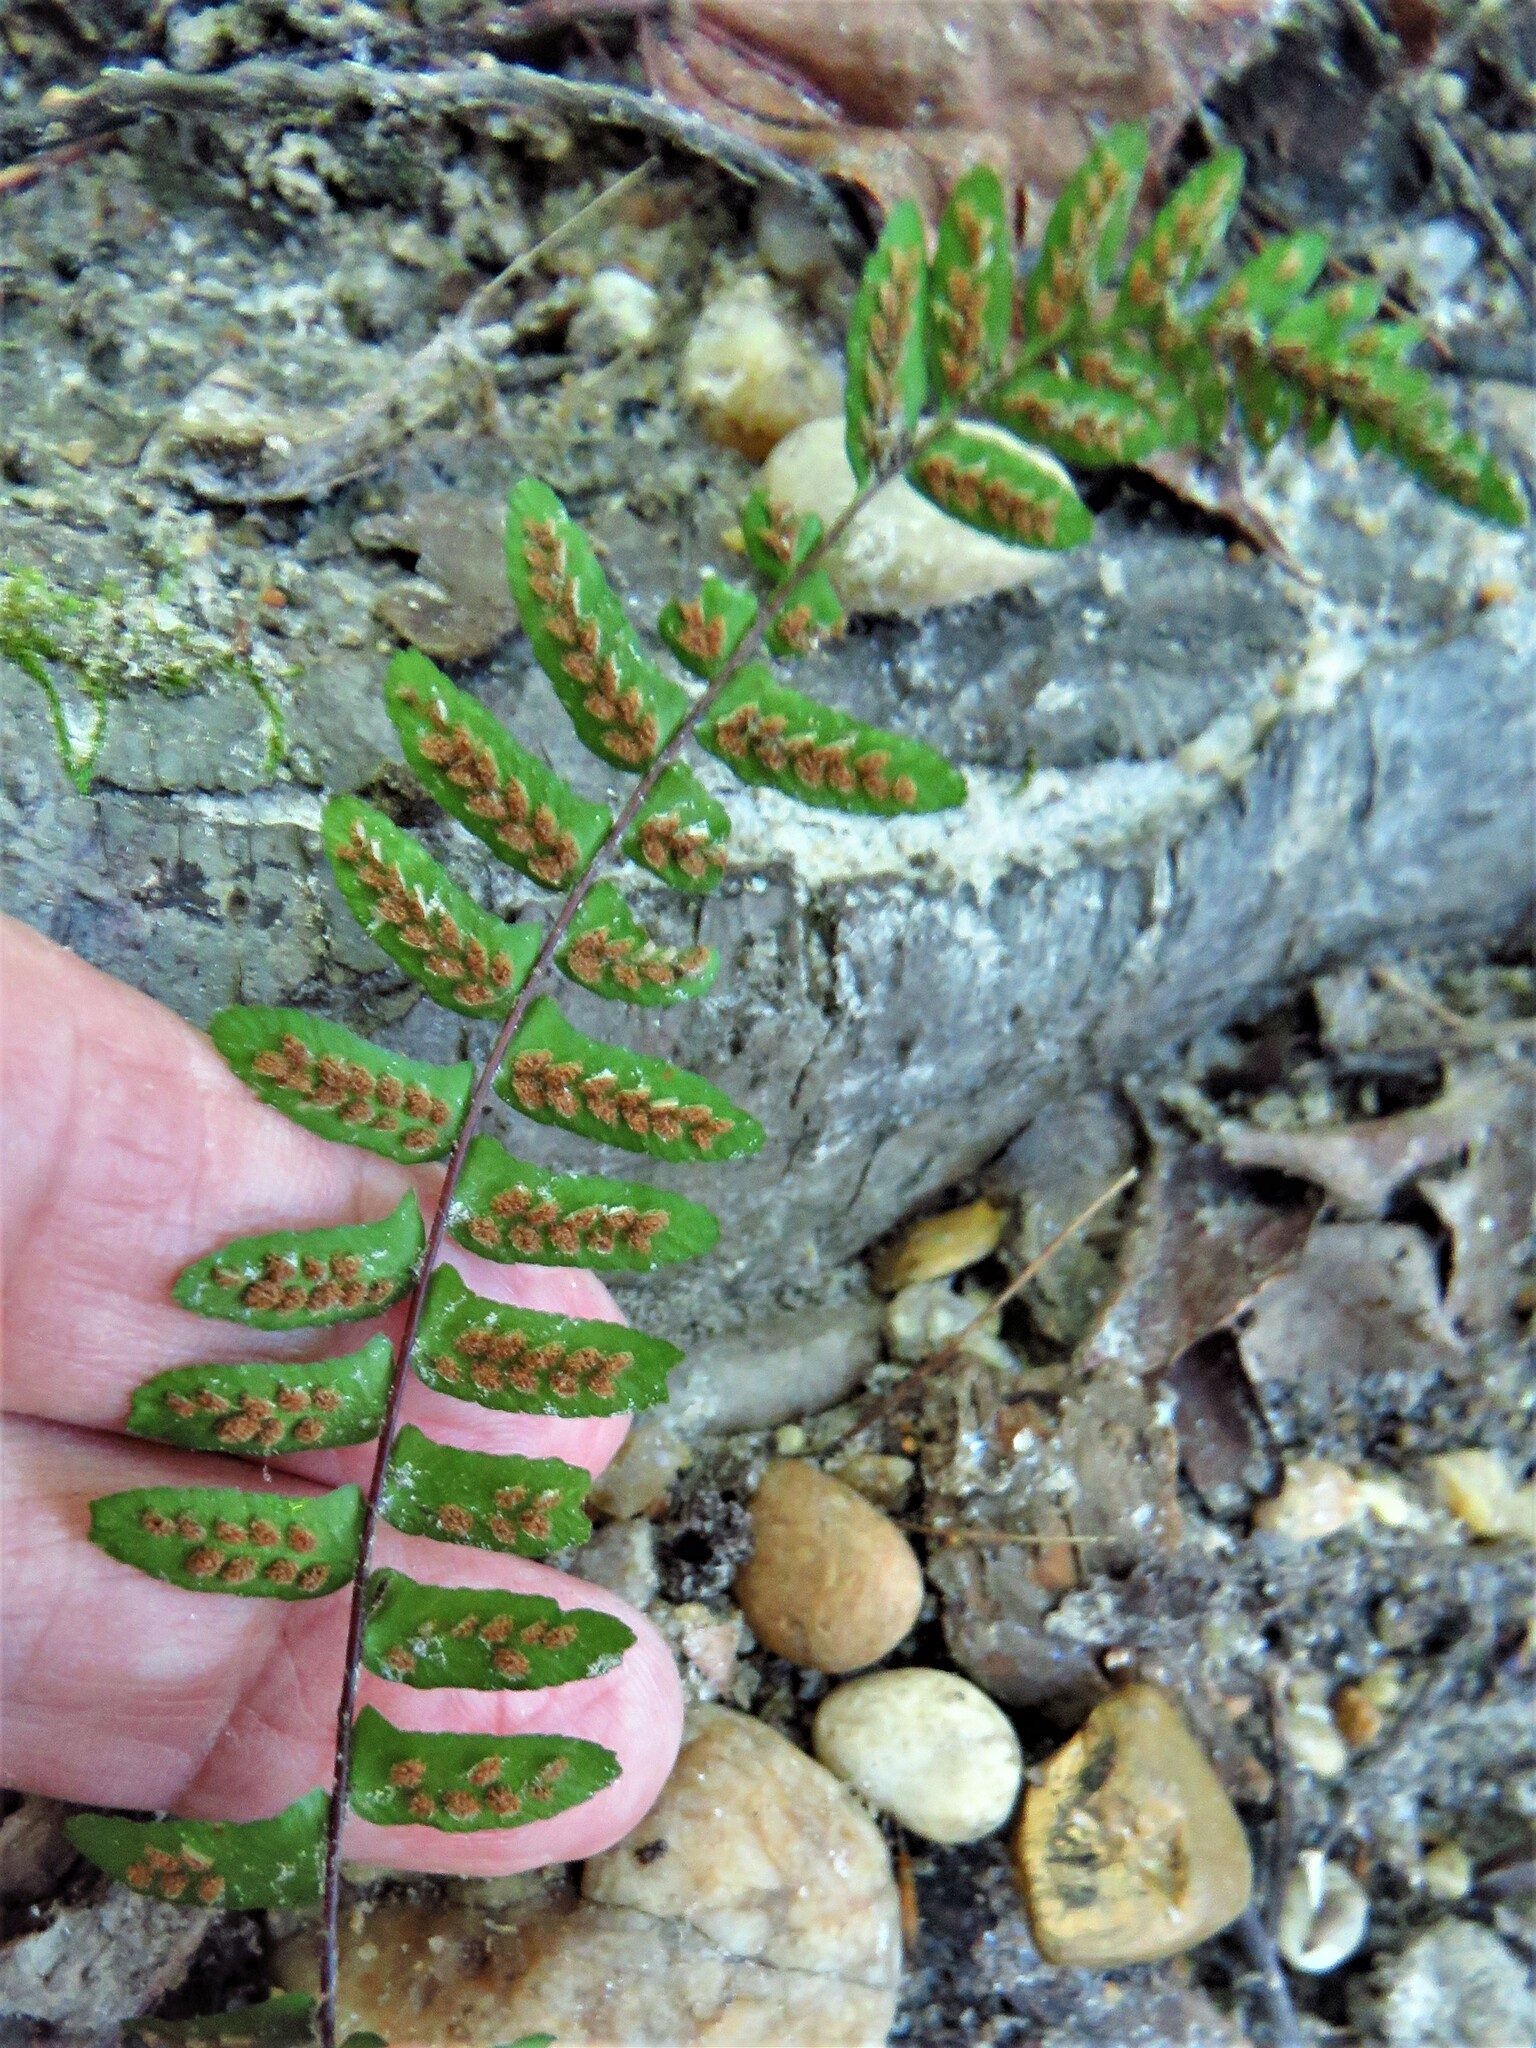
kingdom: Plantae
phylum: Tracheophyta
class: Polypodiopsida
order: Polypodiales
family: Aspleniaceae
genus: Asplenium
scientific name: Asplenium platyneuron
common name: Ebony spleenwort
